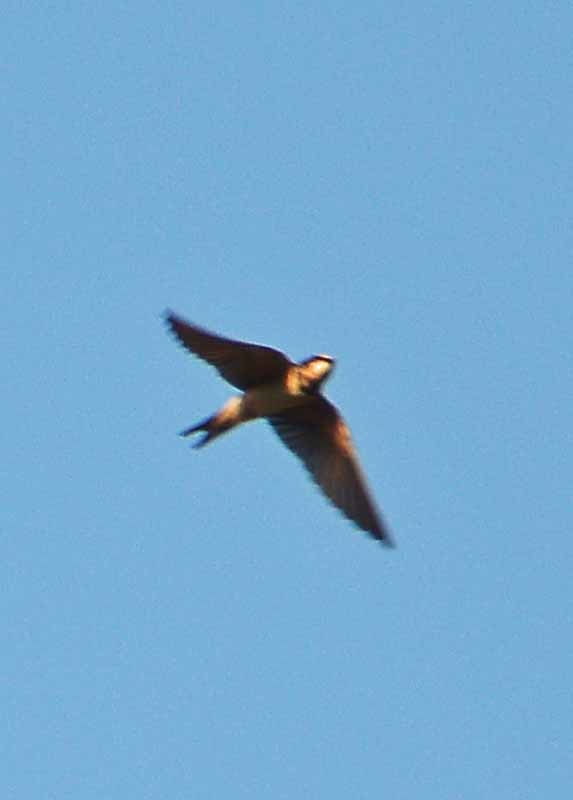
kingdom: Animalia
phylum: Chordata
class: Aves
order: Passeriformes
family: Hirundinidae
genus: Hirundo
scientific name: Hirundo rustica
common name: Barn swallow
